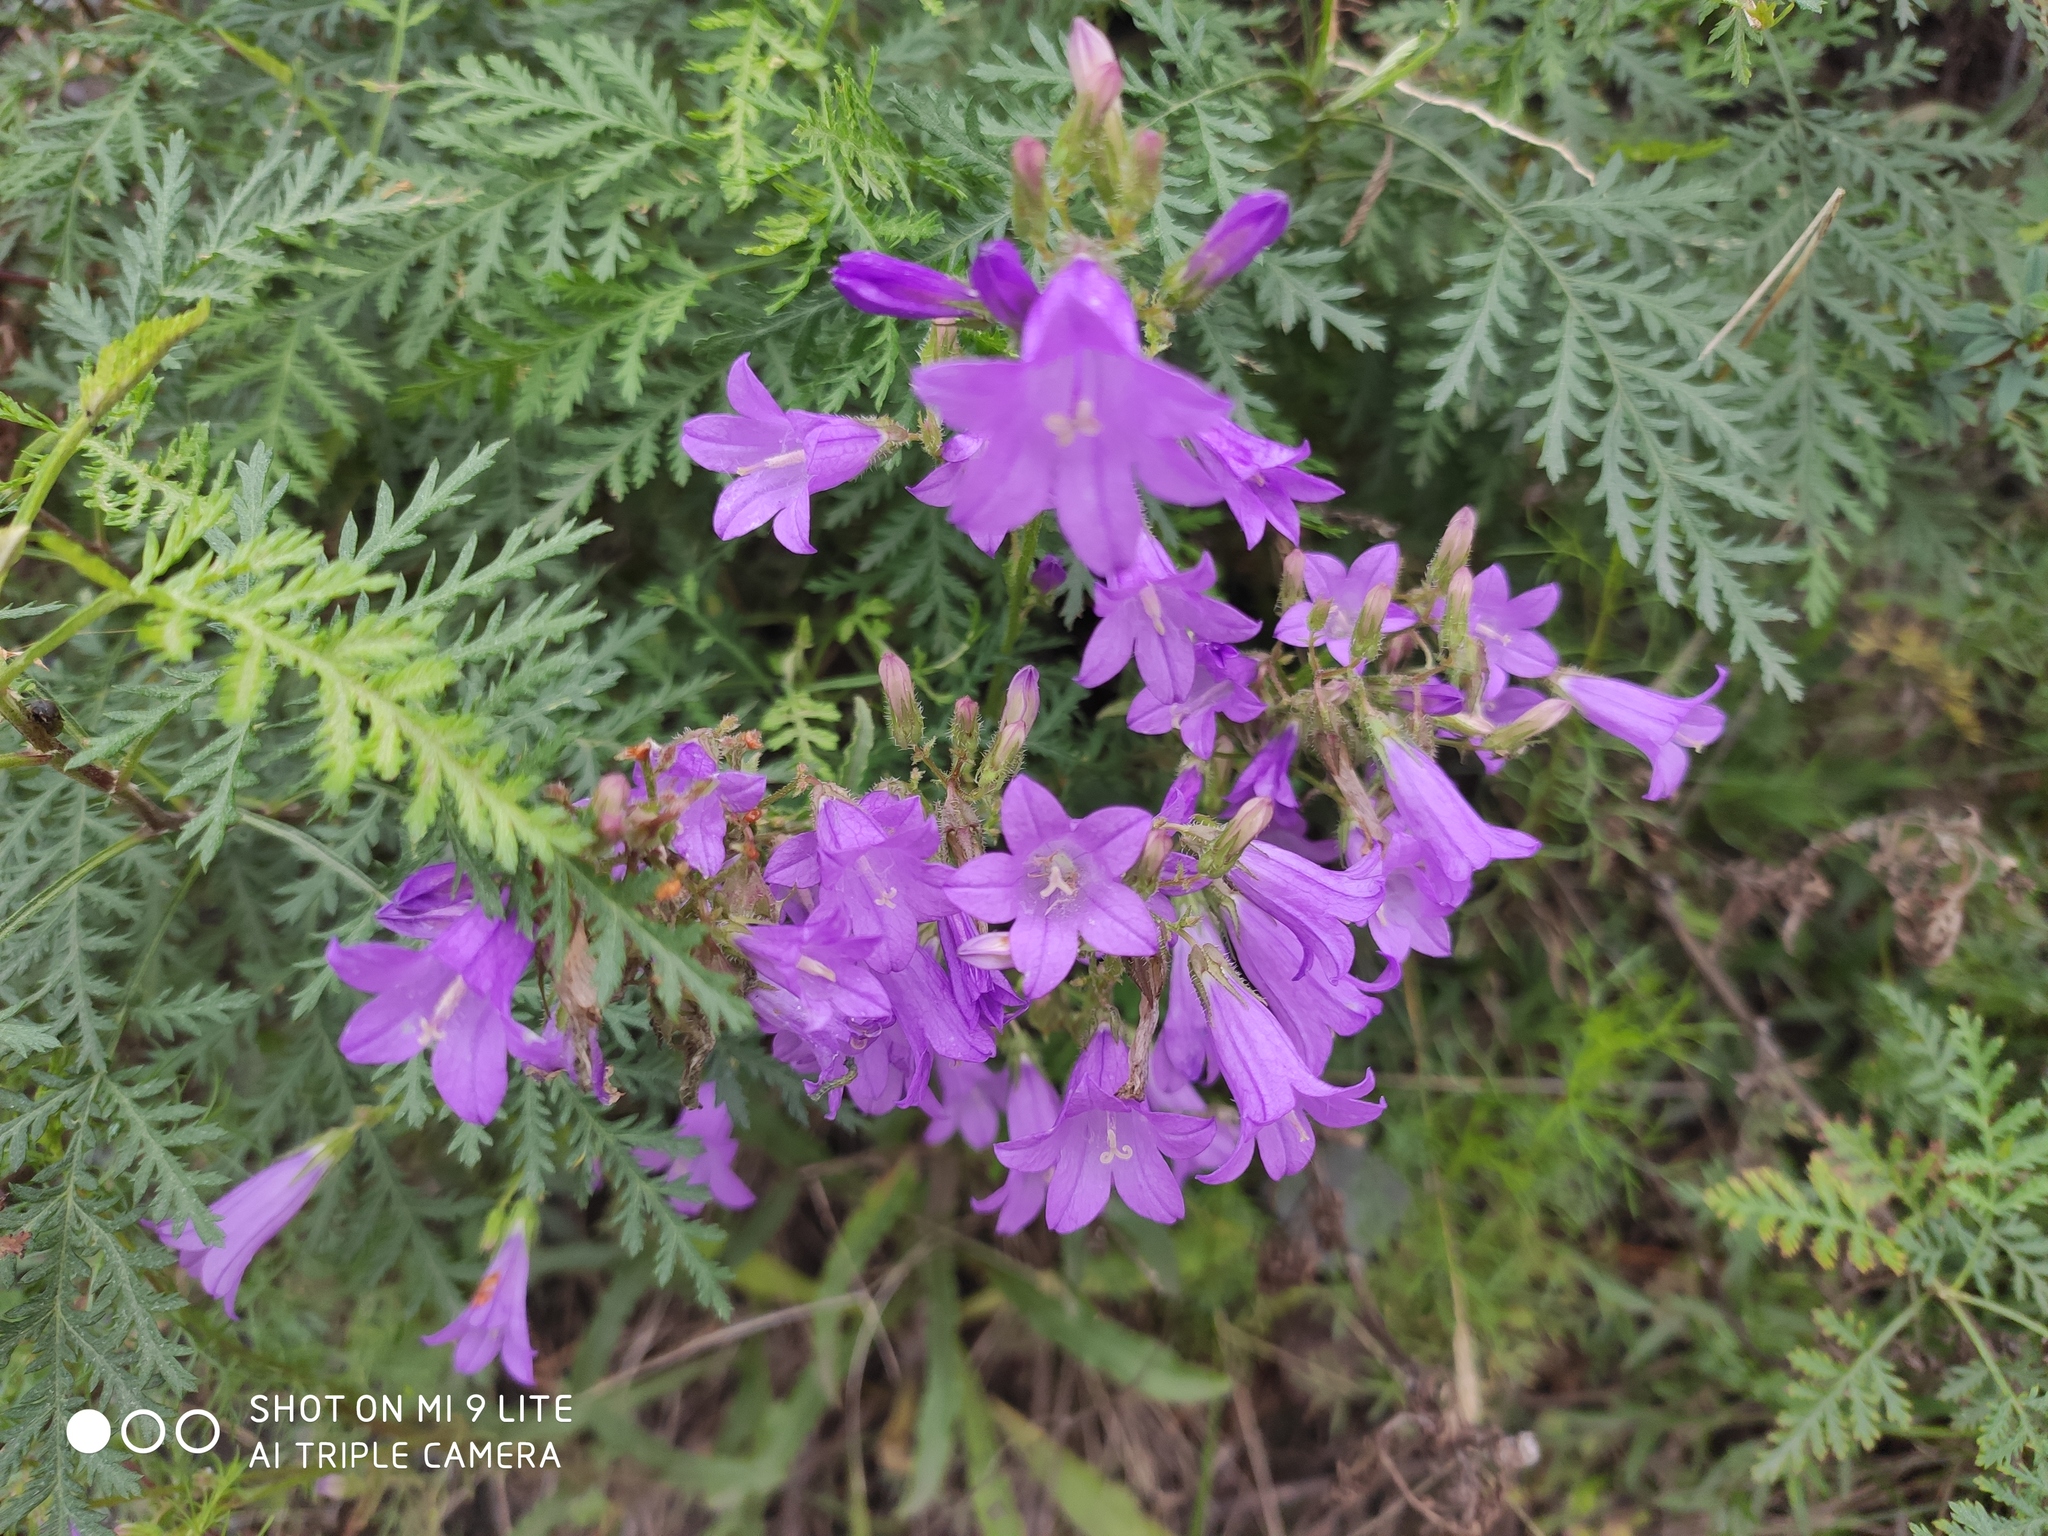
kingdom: Plantae
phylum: Tracheophyta
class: Magnoliopsida
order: Asterales
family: Campanulaceae
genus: Campanula
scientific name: Campanula sibirica
